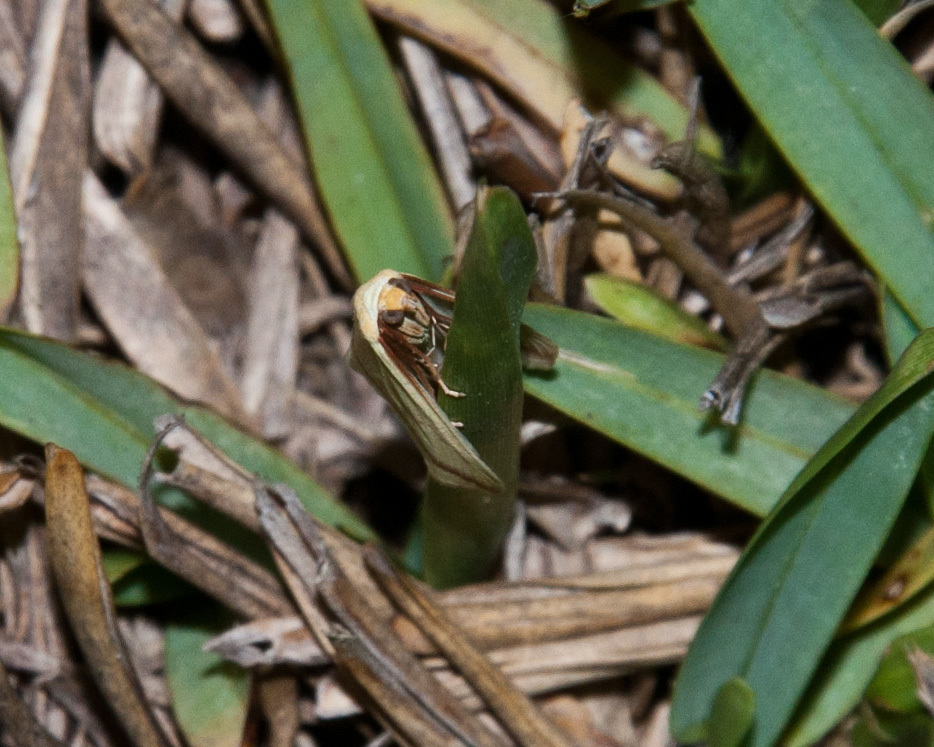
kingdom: Animalia
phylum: Arthropoda
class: Insecta
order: Lepidoptera
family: Geometridae
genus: Rhodometra
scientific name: Rhodometra sacraria
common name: Vestal
